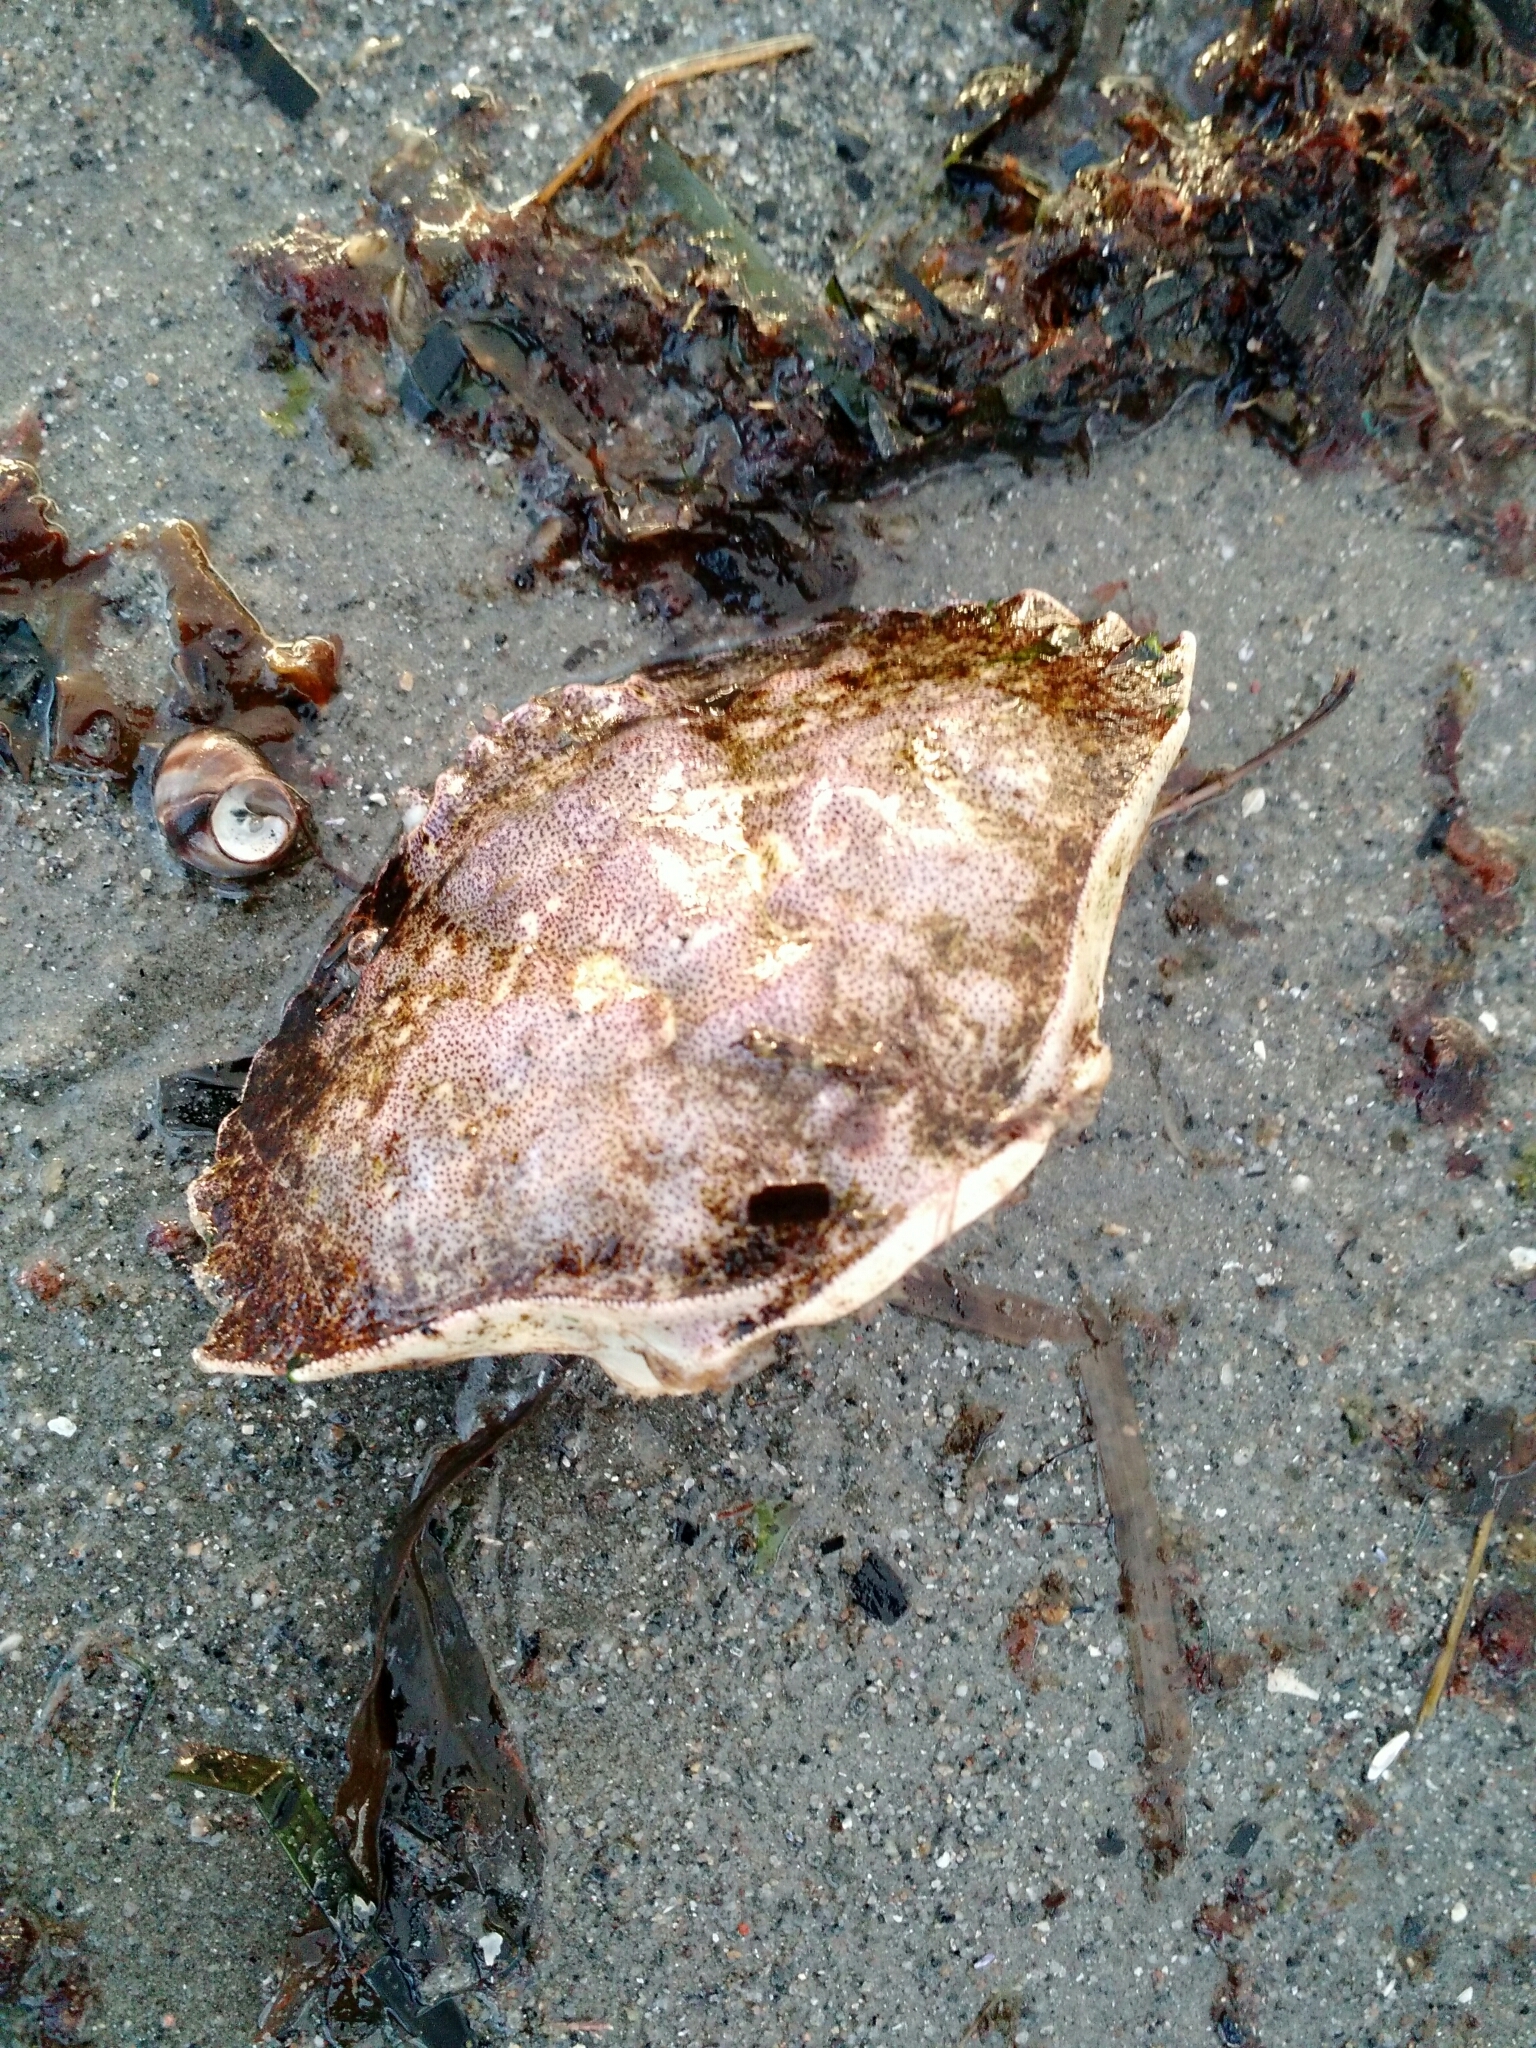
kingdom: Animalia
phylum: Arthropoda
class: Malacostraca
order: Decapoda
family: Cancridae
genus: Cancer
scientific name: Cancer irroratus
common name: Atlantic rock crab
